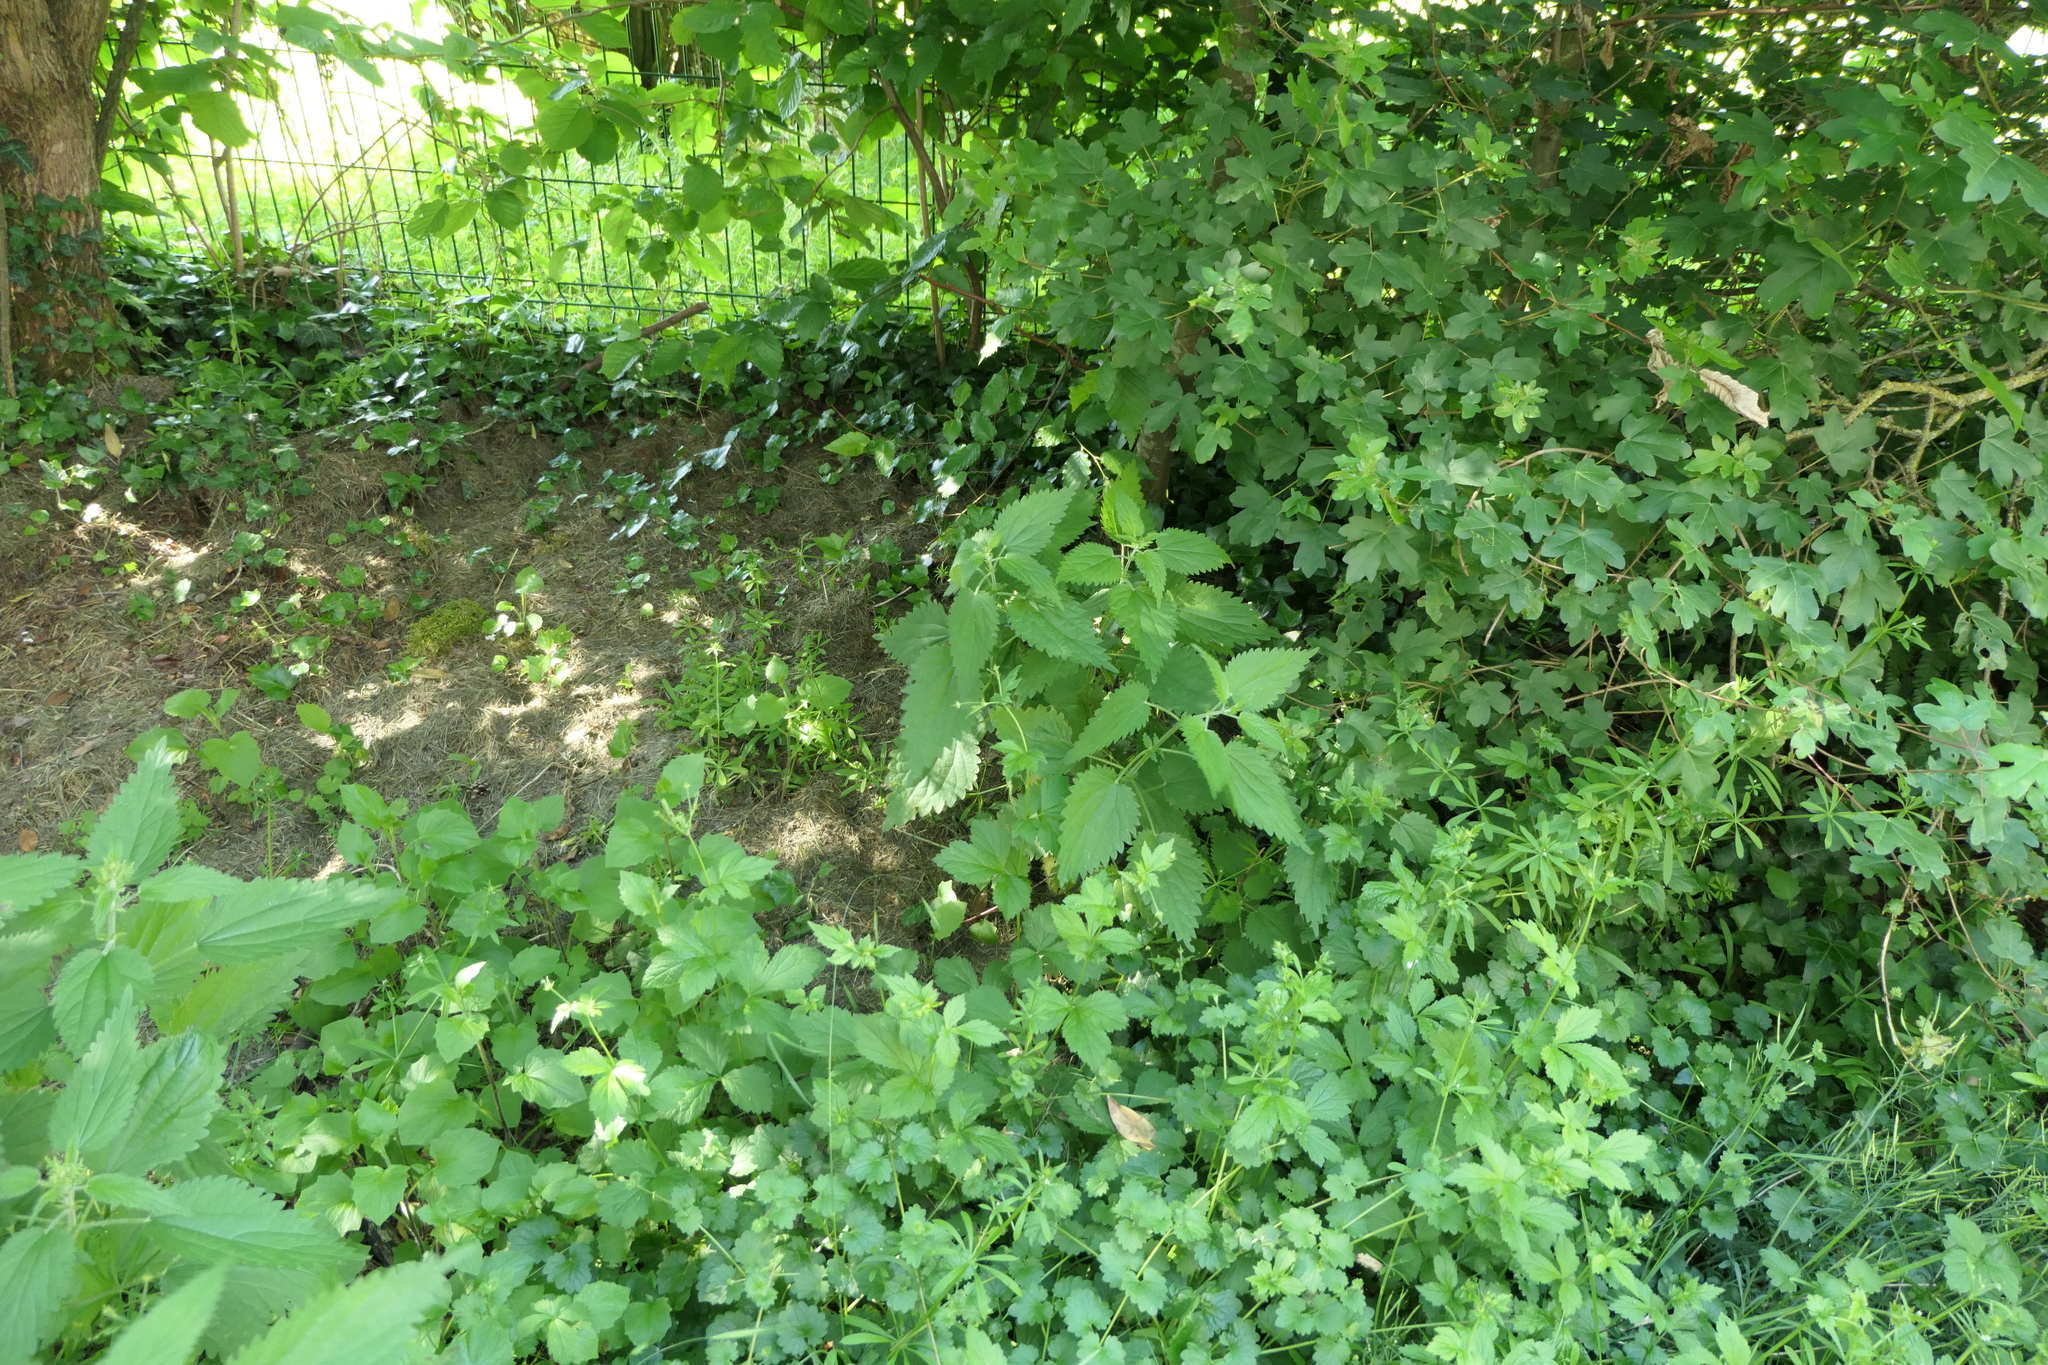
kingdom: Plantae
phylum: Tracheophyta
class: Magnoliopsida
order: Rosales
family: Urticaceae
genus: Urtica
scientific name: Urtica dioica
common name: Common nettle
